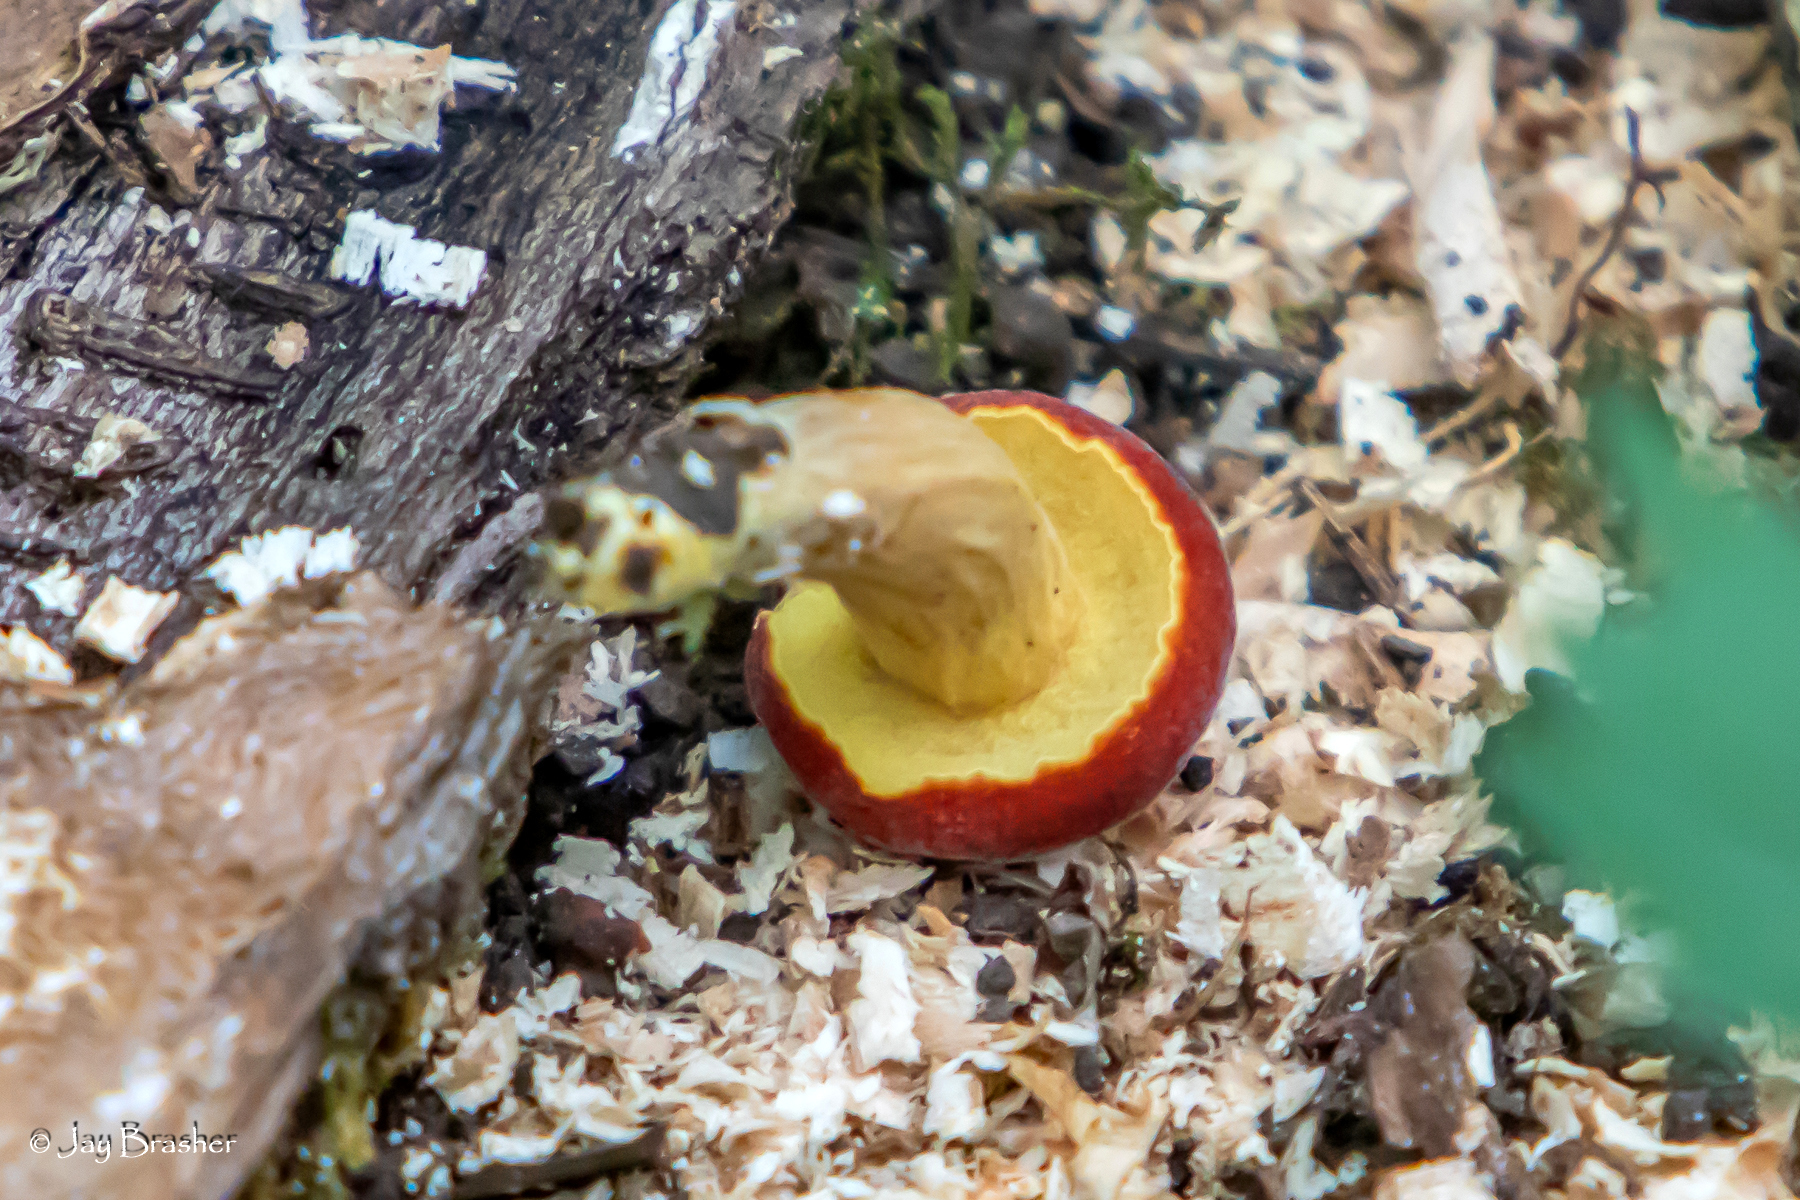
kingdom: Fungi
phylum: Basidiomycota
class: Agaricomycetes
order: Boletales
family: Boletaceae
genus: Hortiboletus
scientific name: Hortiboletus rubellus
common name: Ruby bolete
